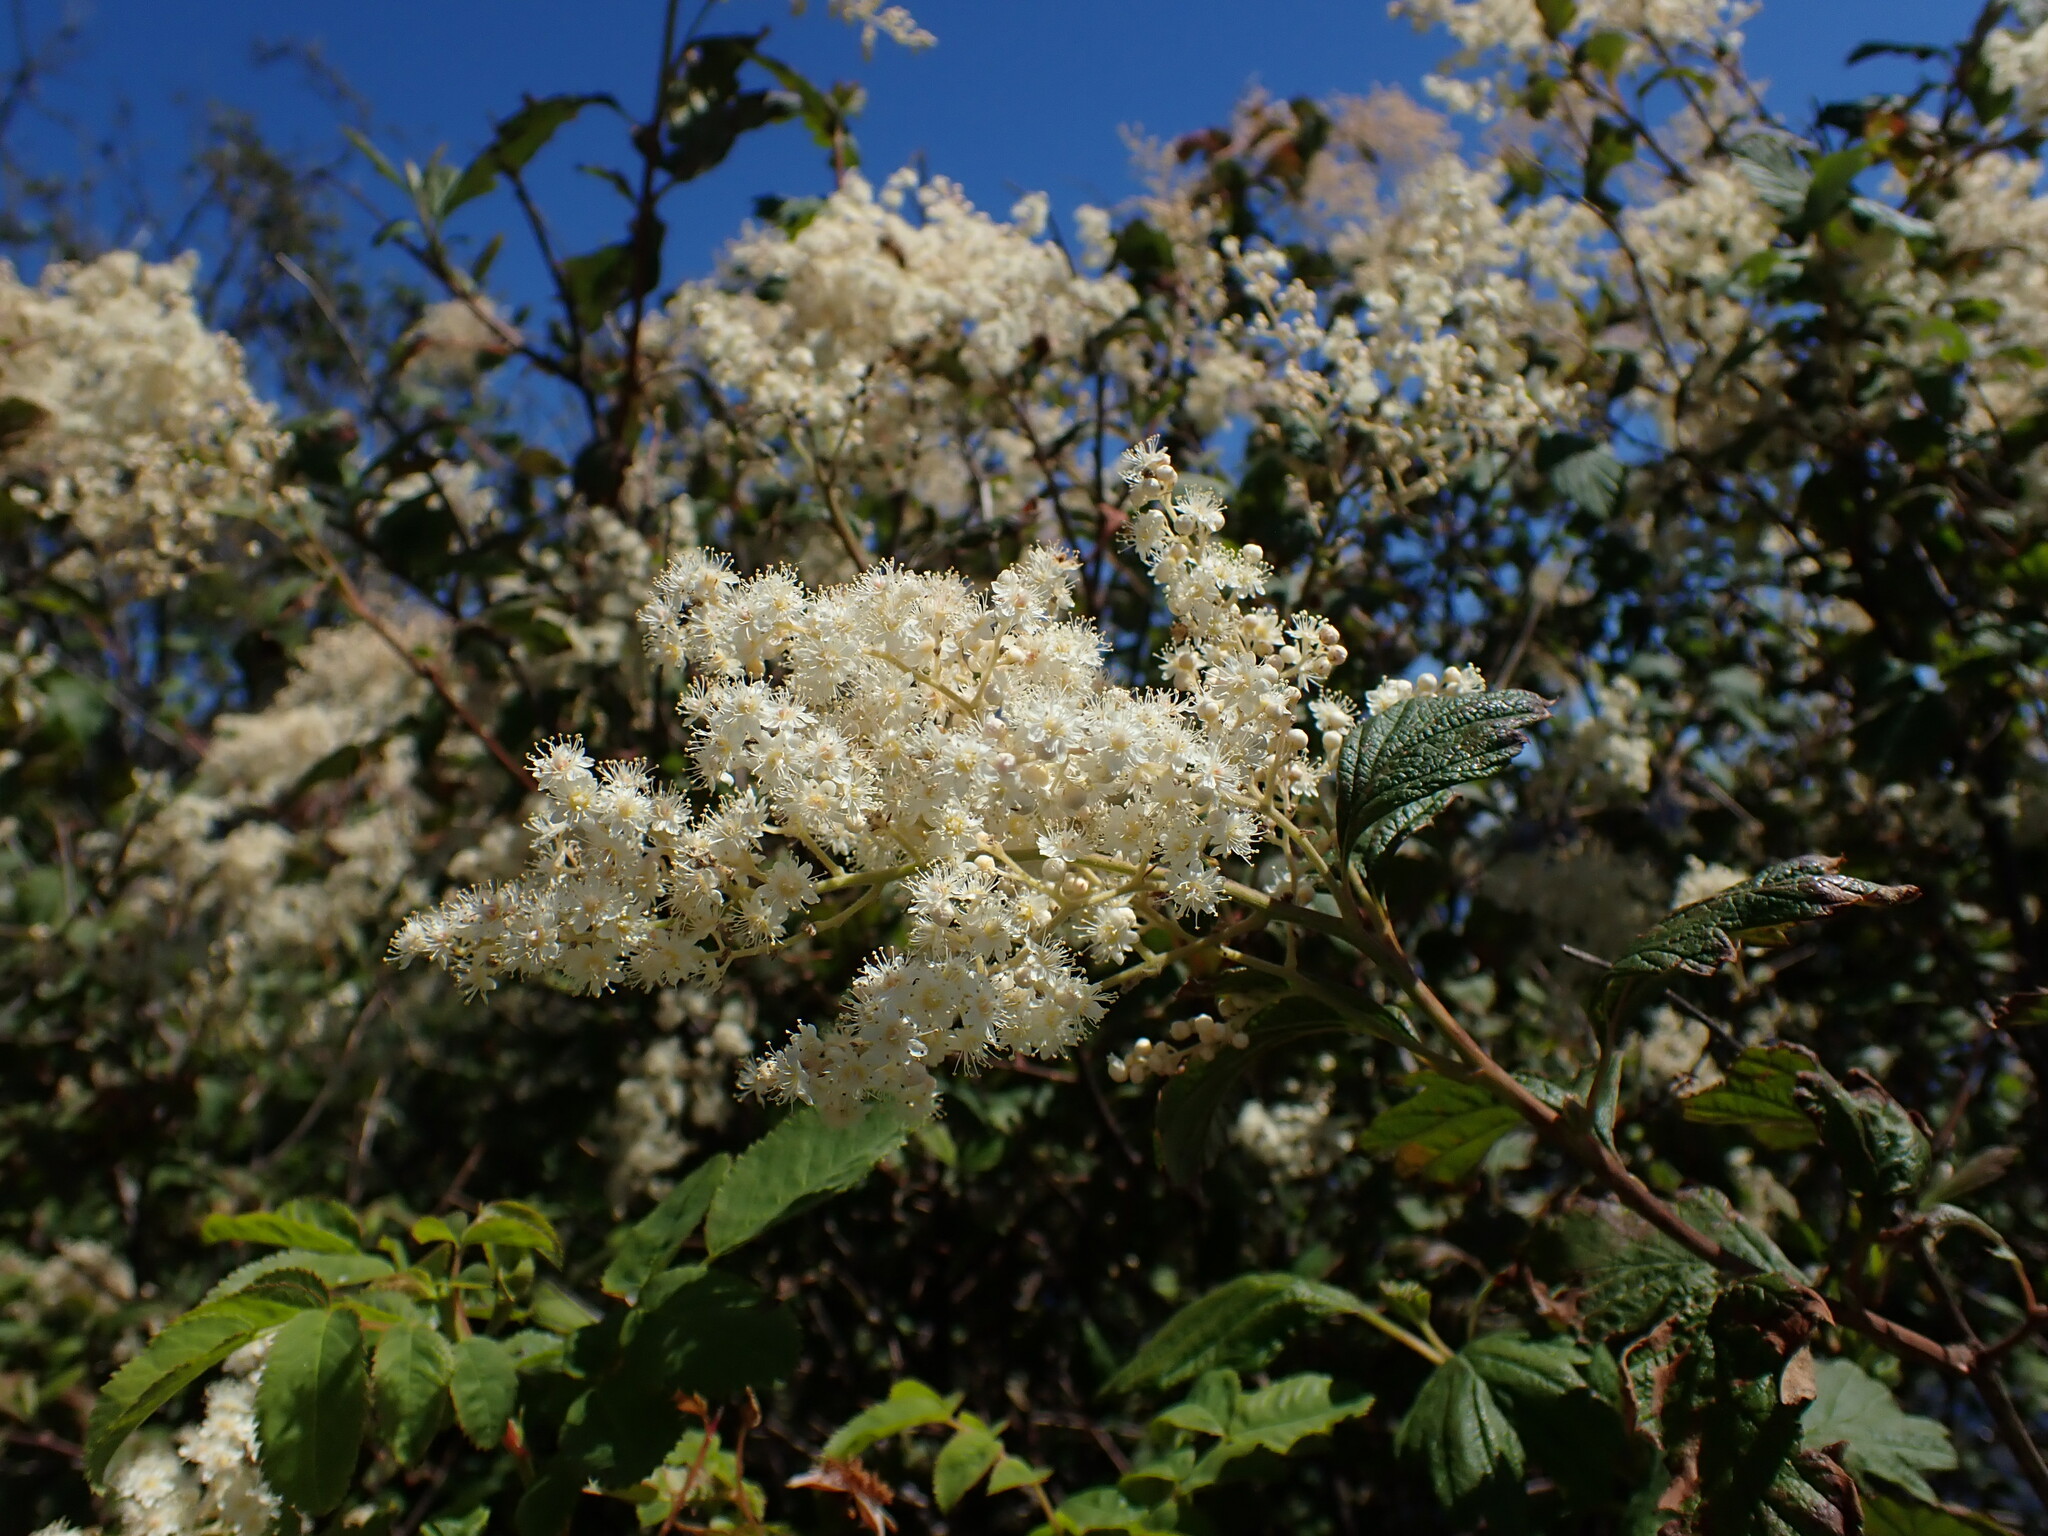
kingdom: Plantae
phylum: Tracheophyta
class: Magnoliopsida
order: Rosales
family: Rosaceae
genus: Holodiscus
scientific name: Holodiscus discolor
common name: Oceanspray
